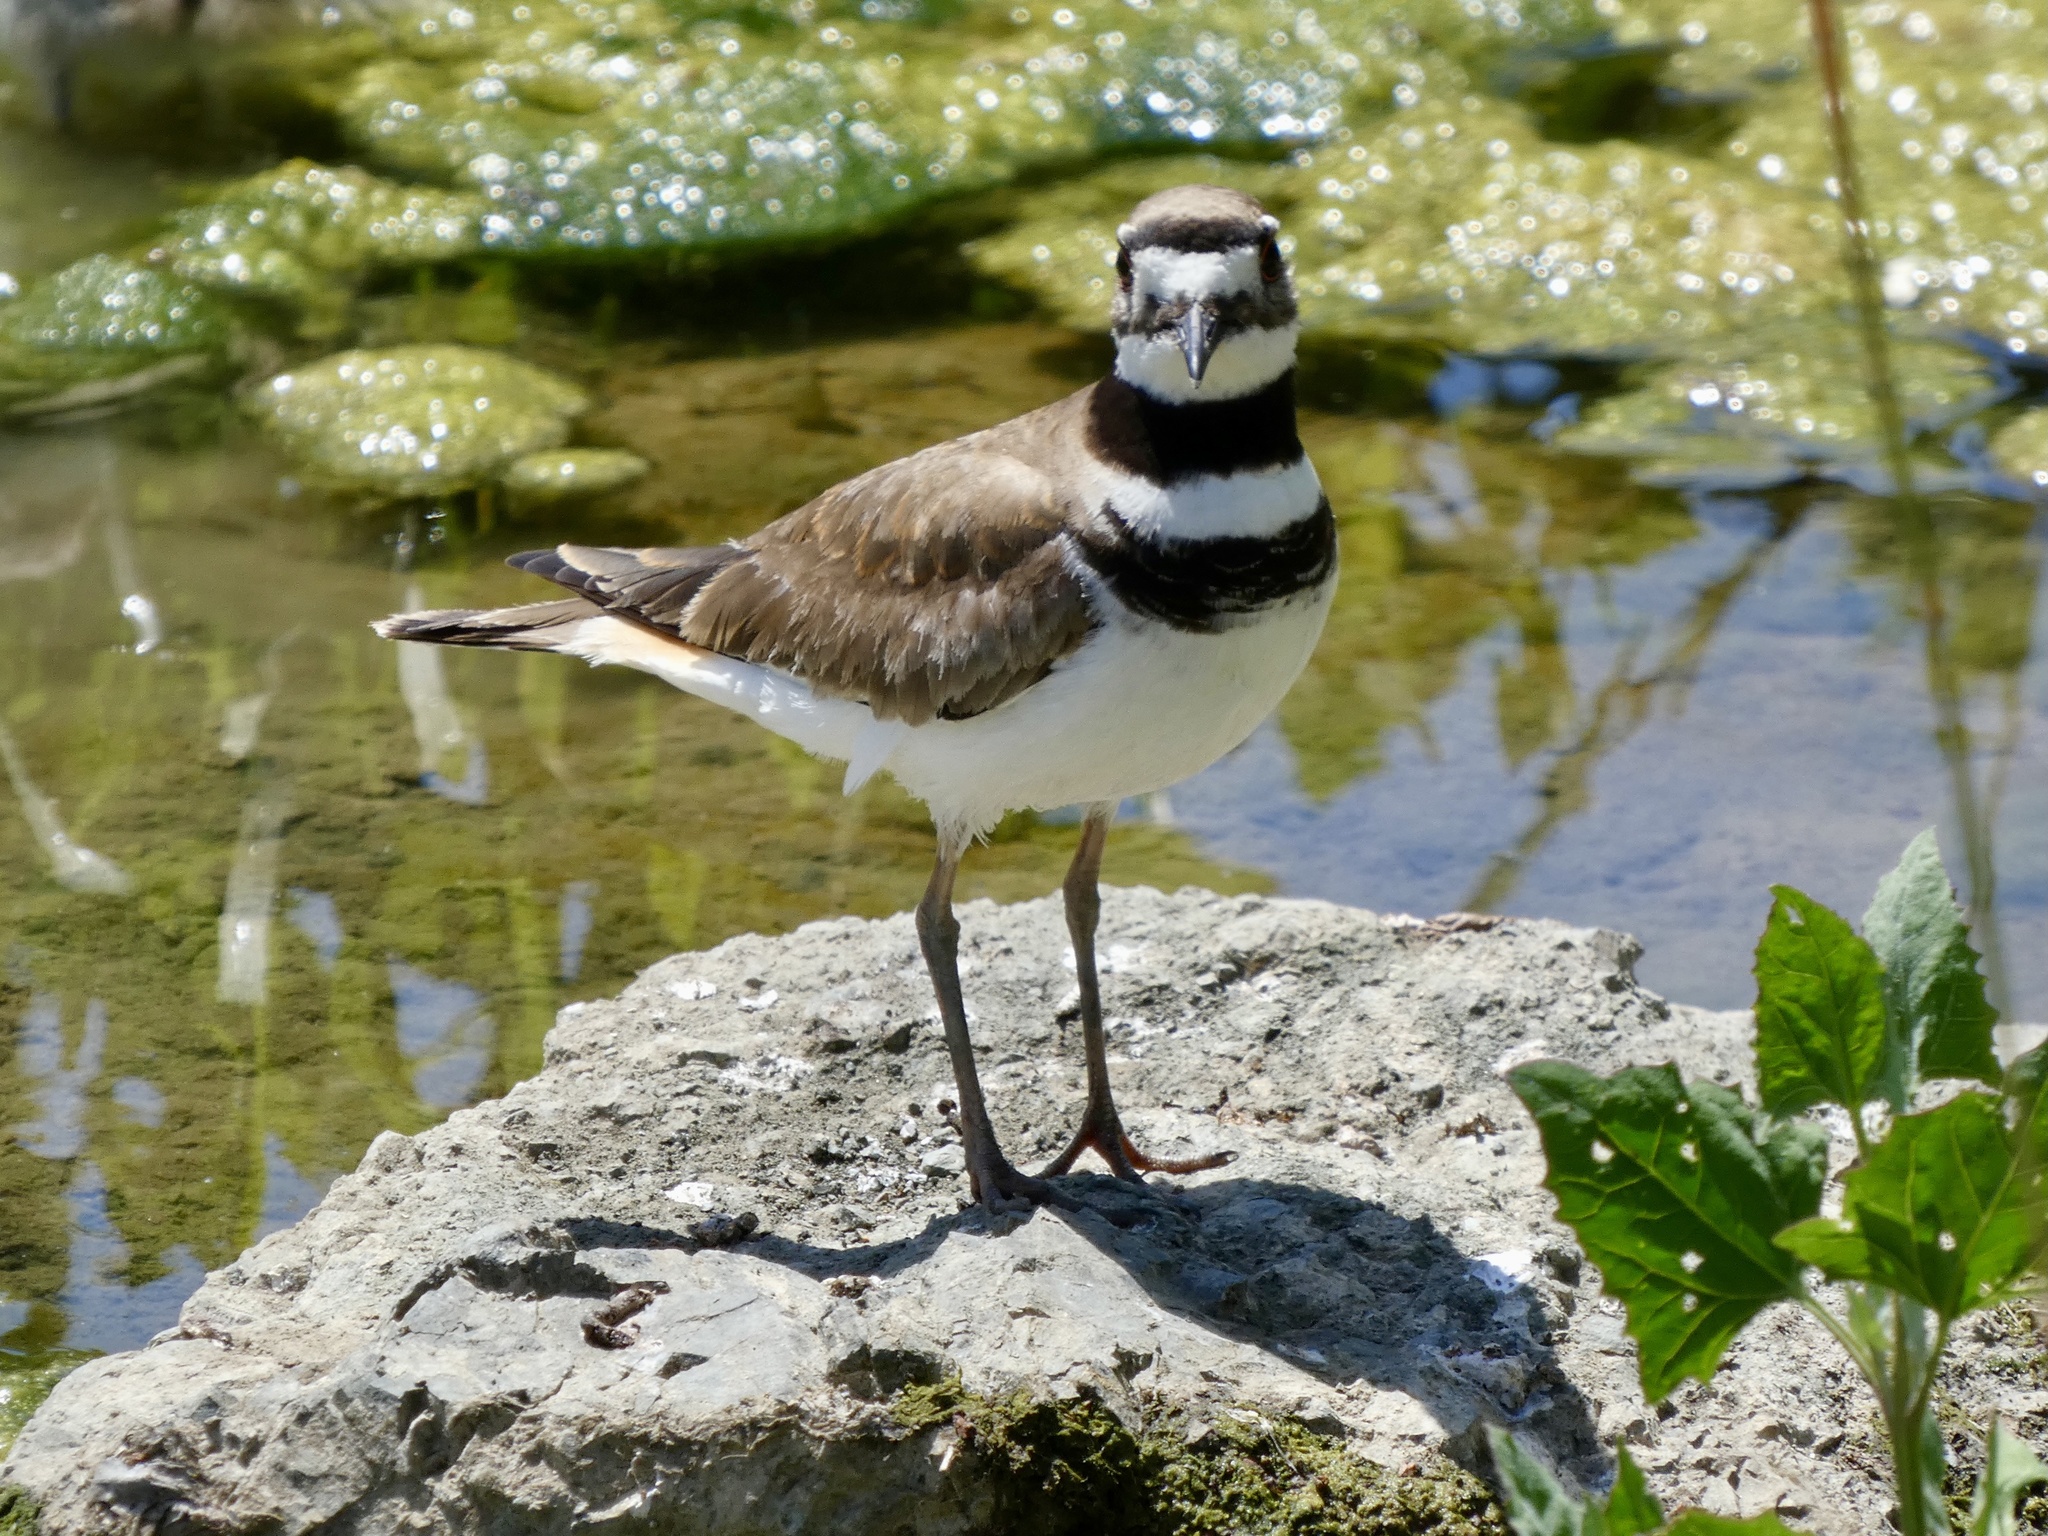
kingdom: Animalia
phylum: Chordata
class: Aves
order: Charadriiformes
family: Charadriidae
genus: Charadrius
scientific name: Charadrius vociferus
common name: Killdeer
